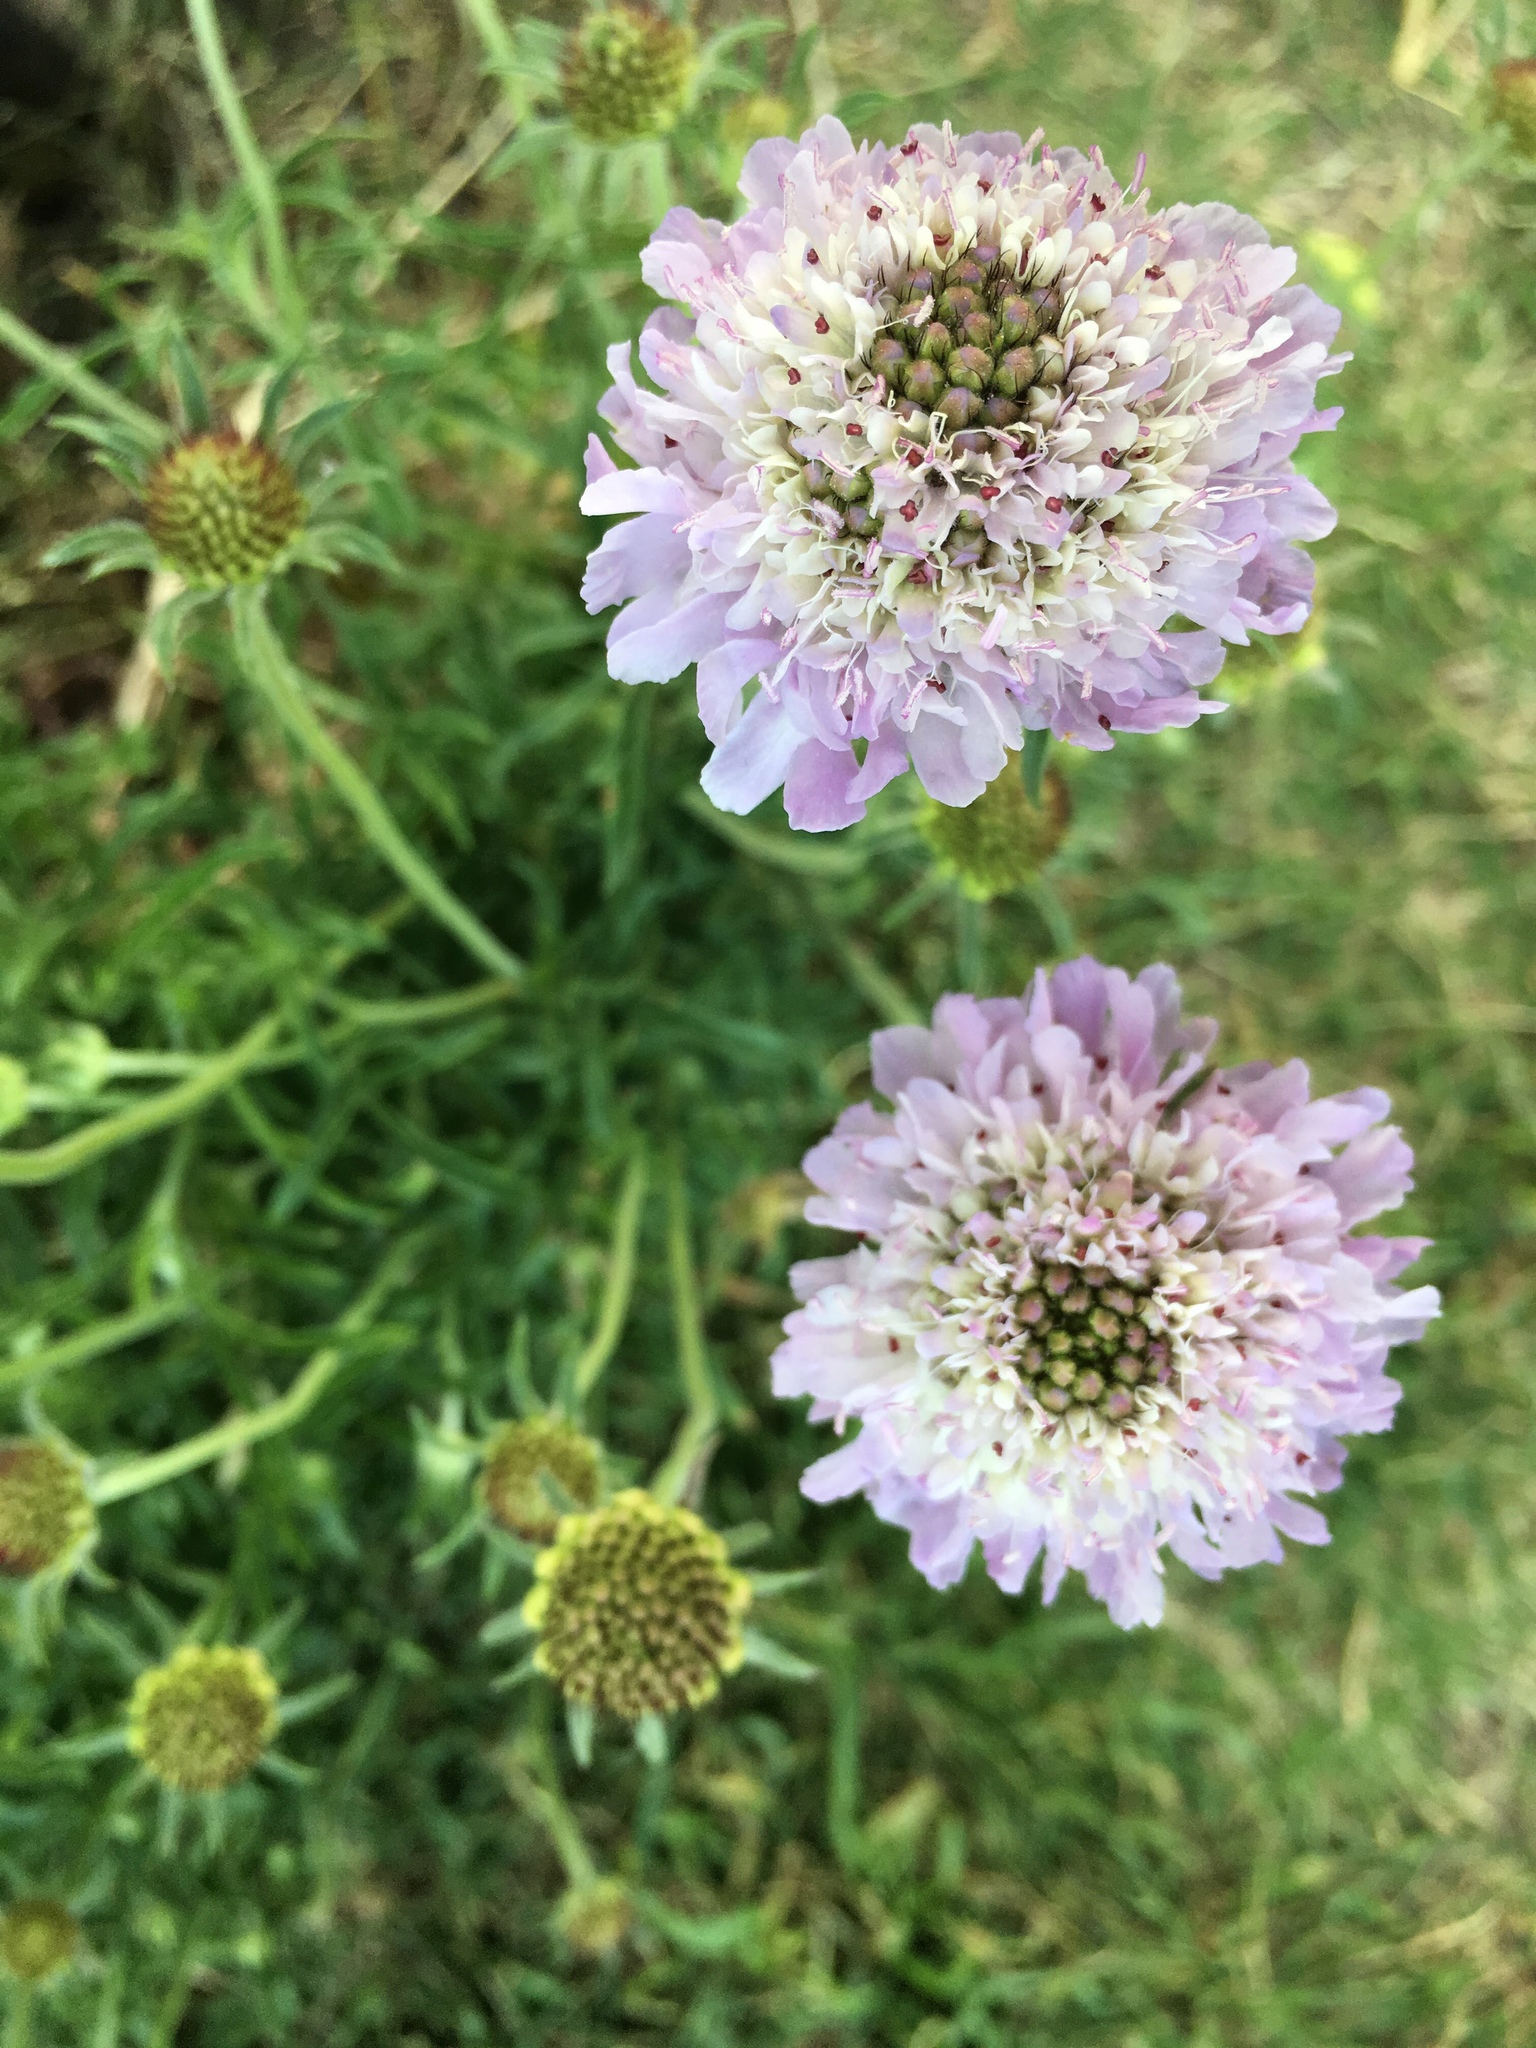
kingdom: Plantae
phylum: Tracheophyta
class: Magnoliopsida
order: Dipsacales
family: Caprifoliaceae
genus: Sixalix
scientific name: Sixalix atropurpurea
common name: Sweet scabious
